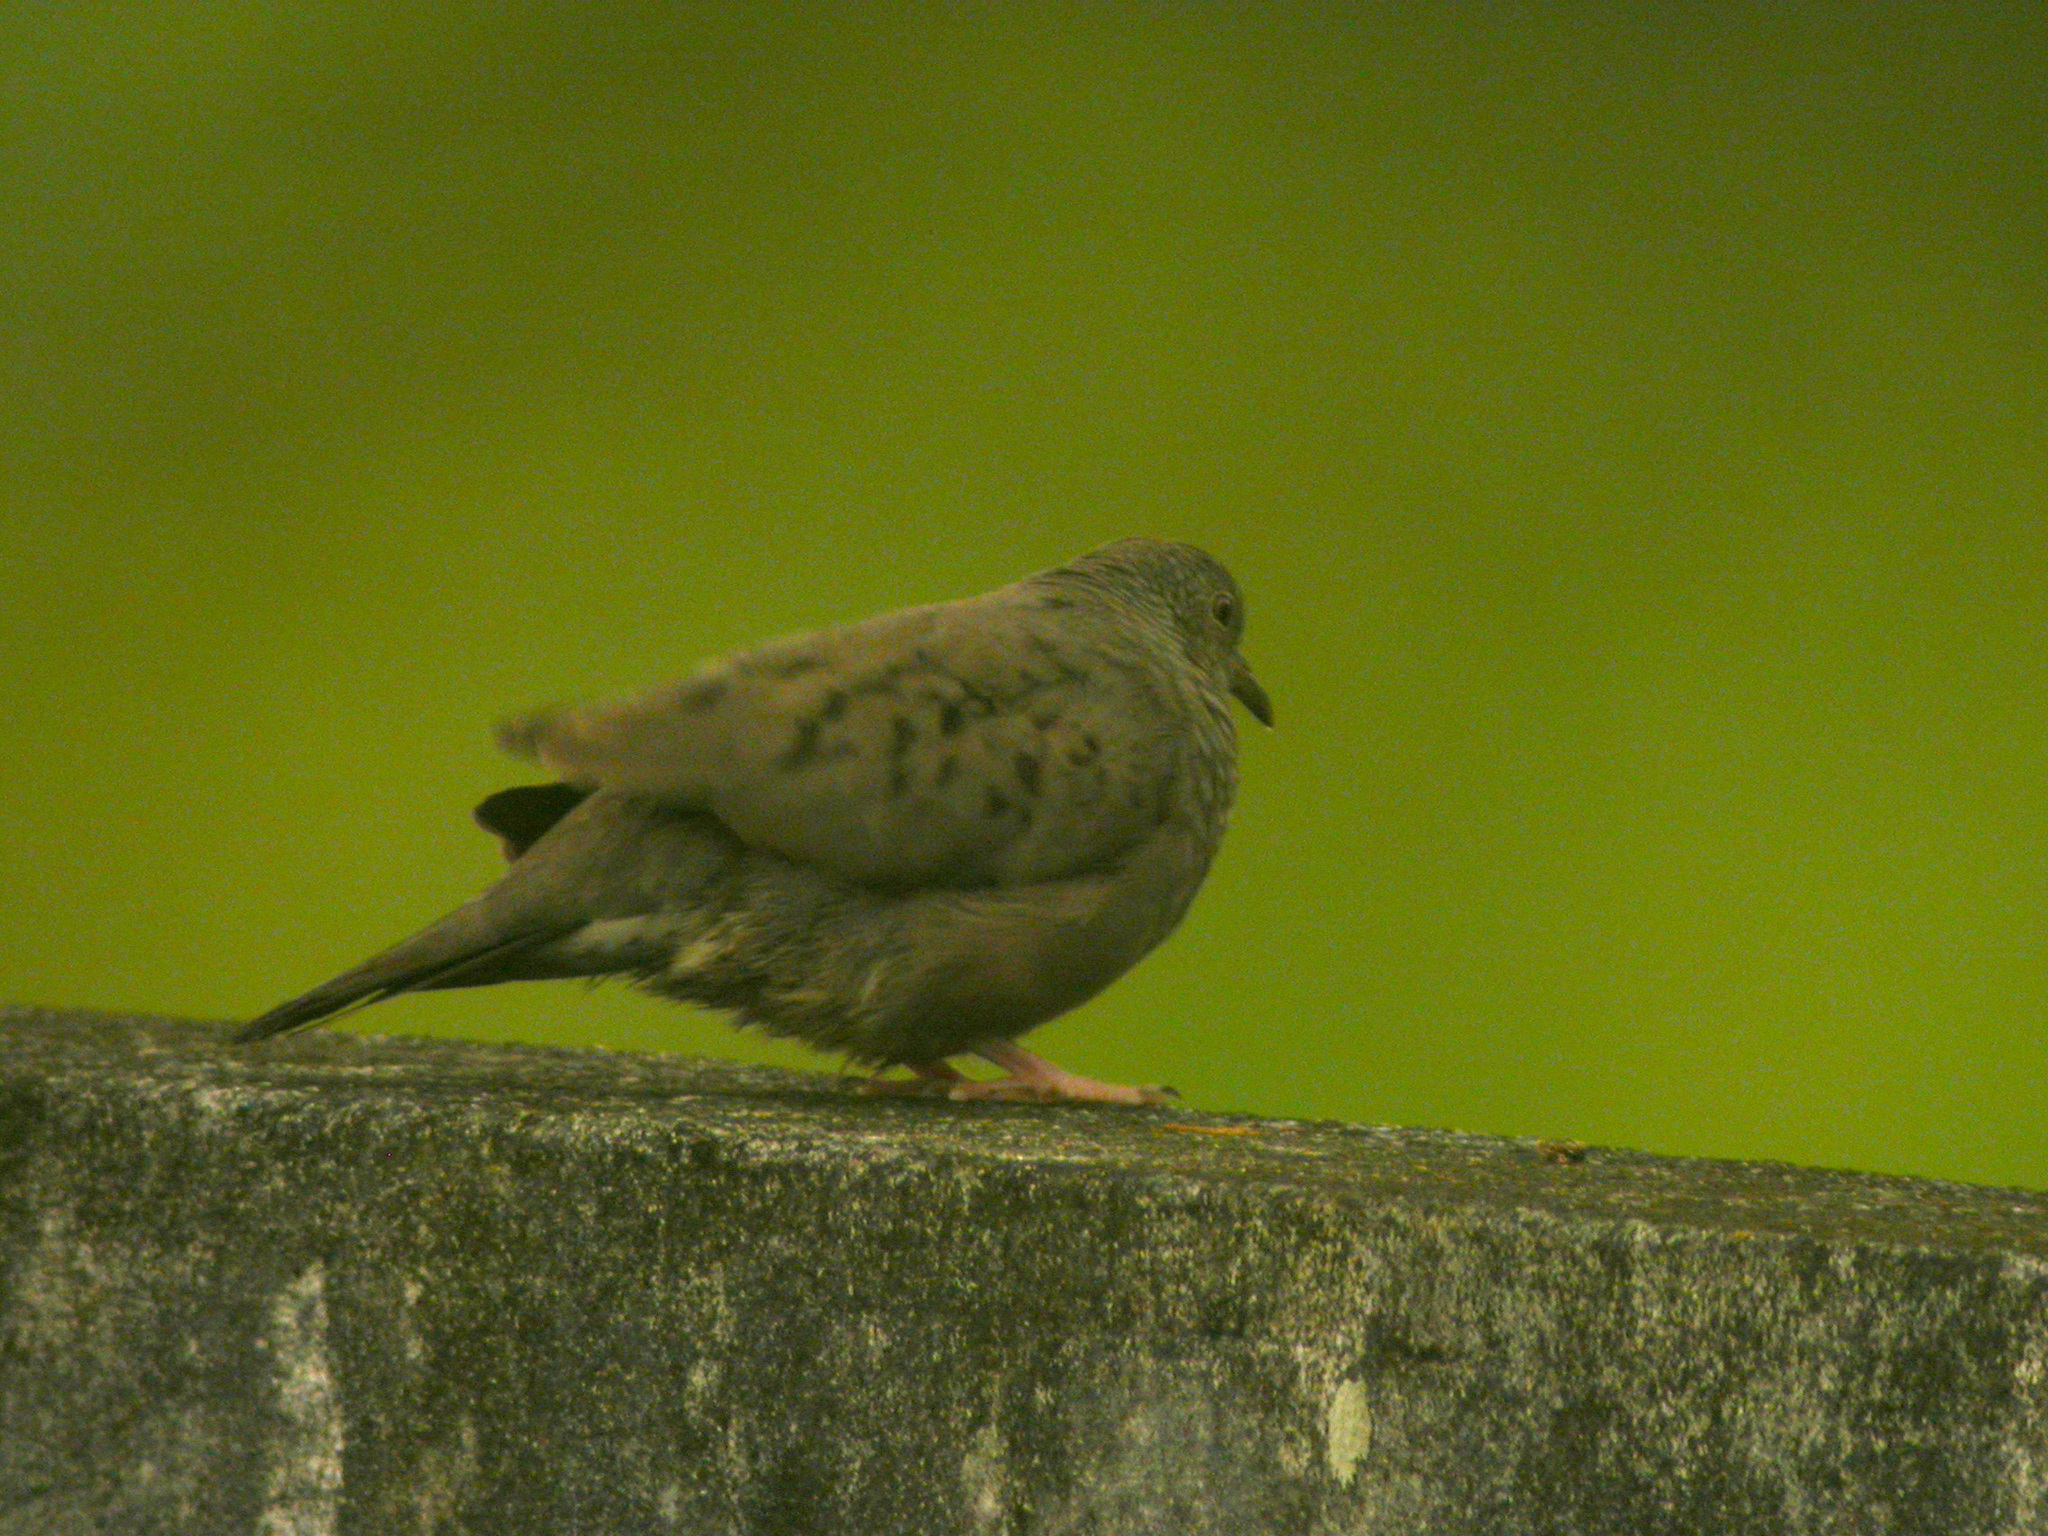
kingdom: Animalia
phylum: Chordata
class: Aves
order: Columbiformes
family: Columbidae
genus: Columbina
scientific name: Columbina passerina
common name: Common ground-dove
